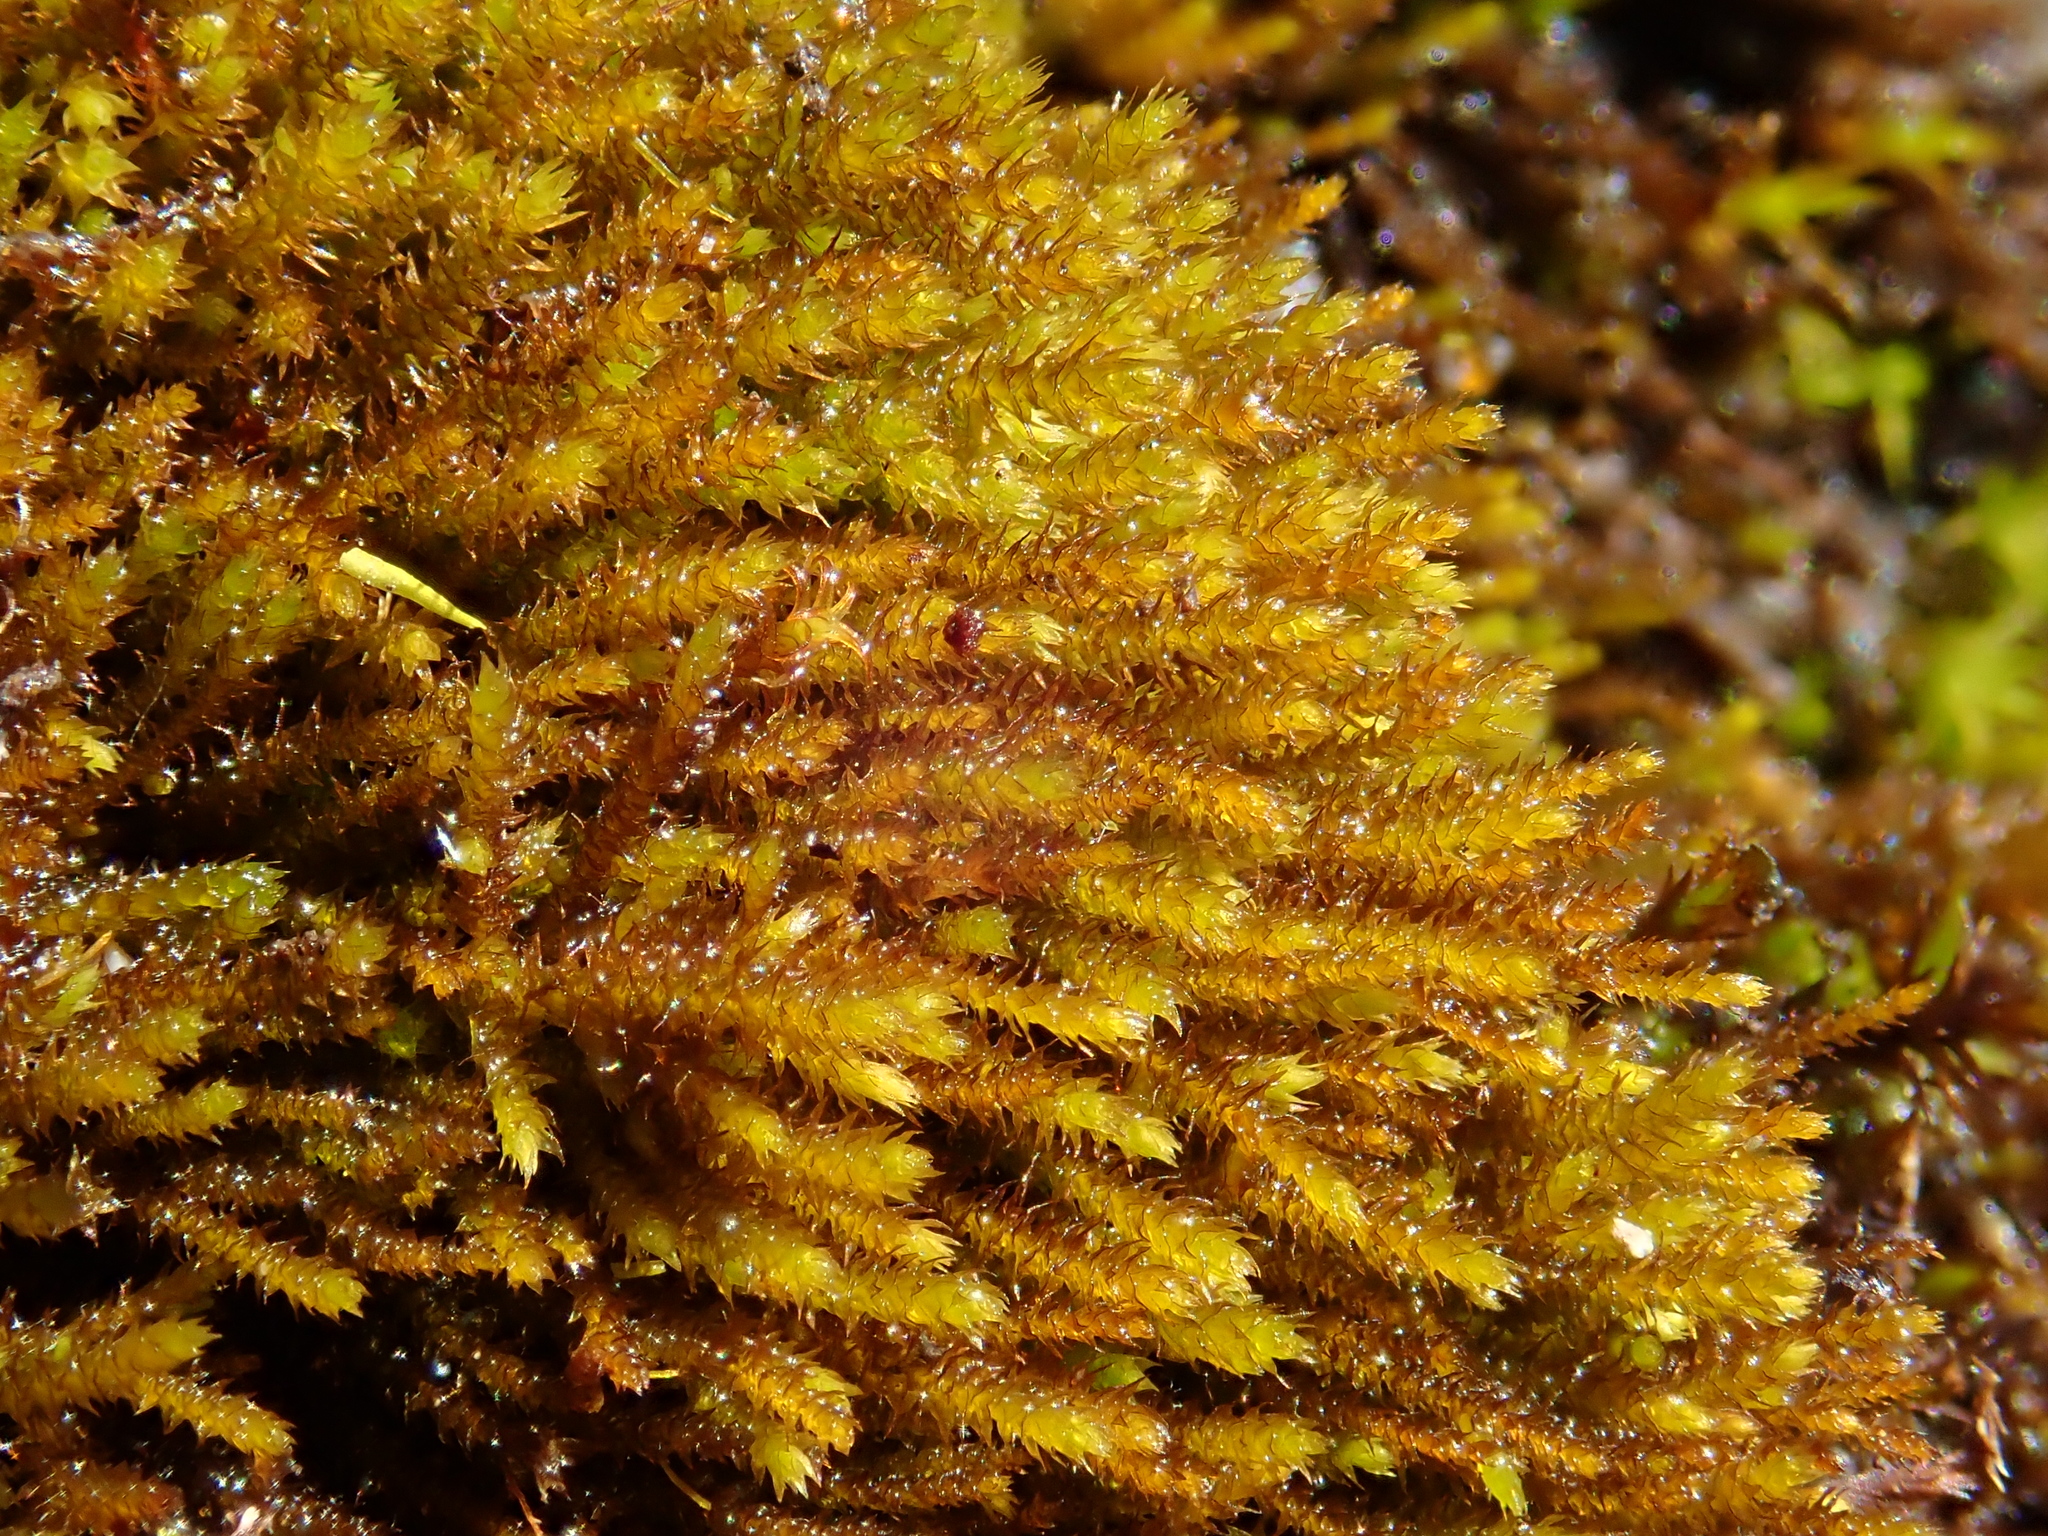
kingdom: Plantae
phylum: Bryophyta
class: Bryopsida
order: Hypnales
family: Pseudoleskeellaceae
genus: Pseudoleskeella
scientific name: Pseudoleskeella catenulata
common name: Chained leskea
